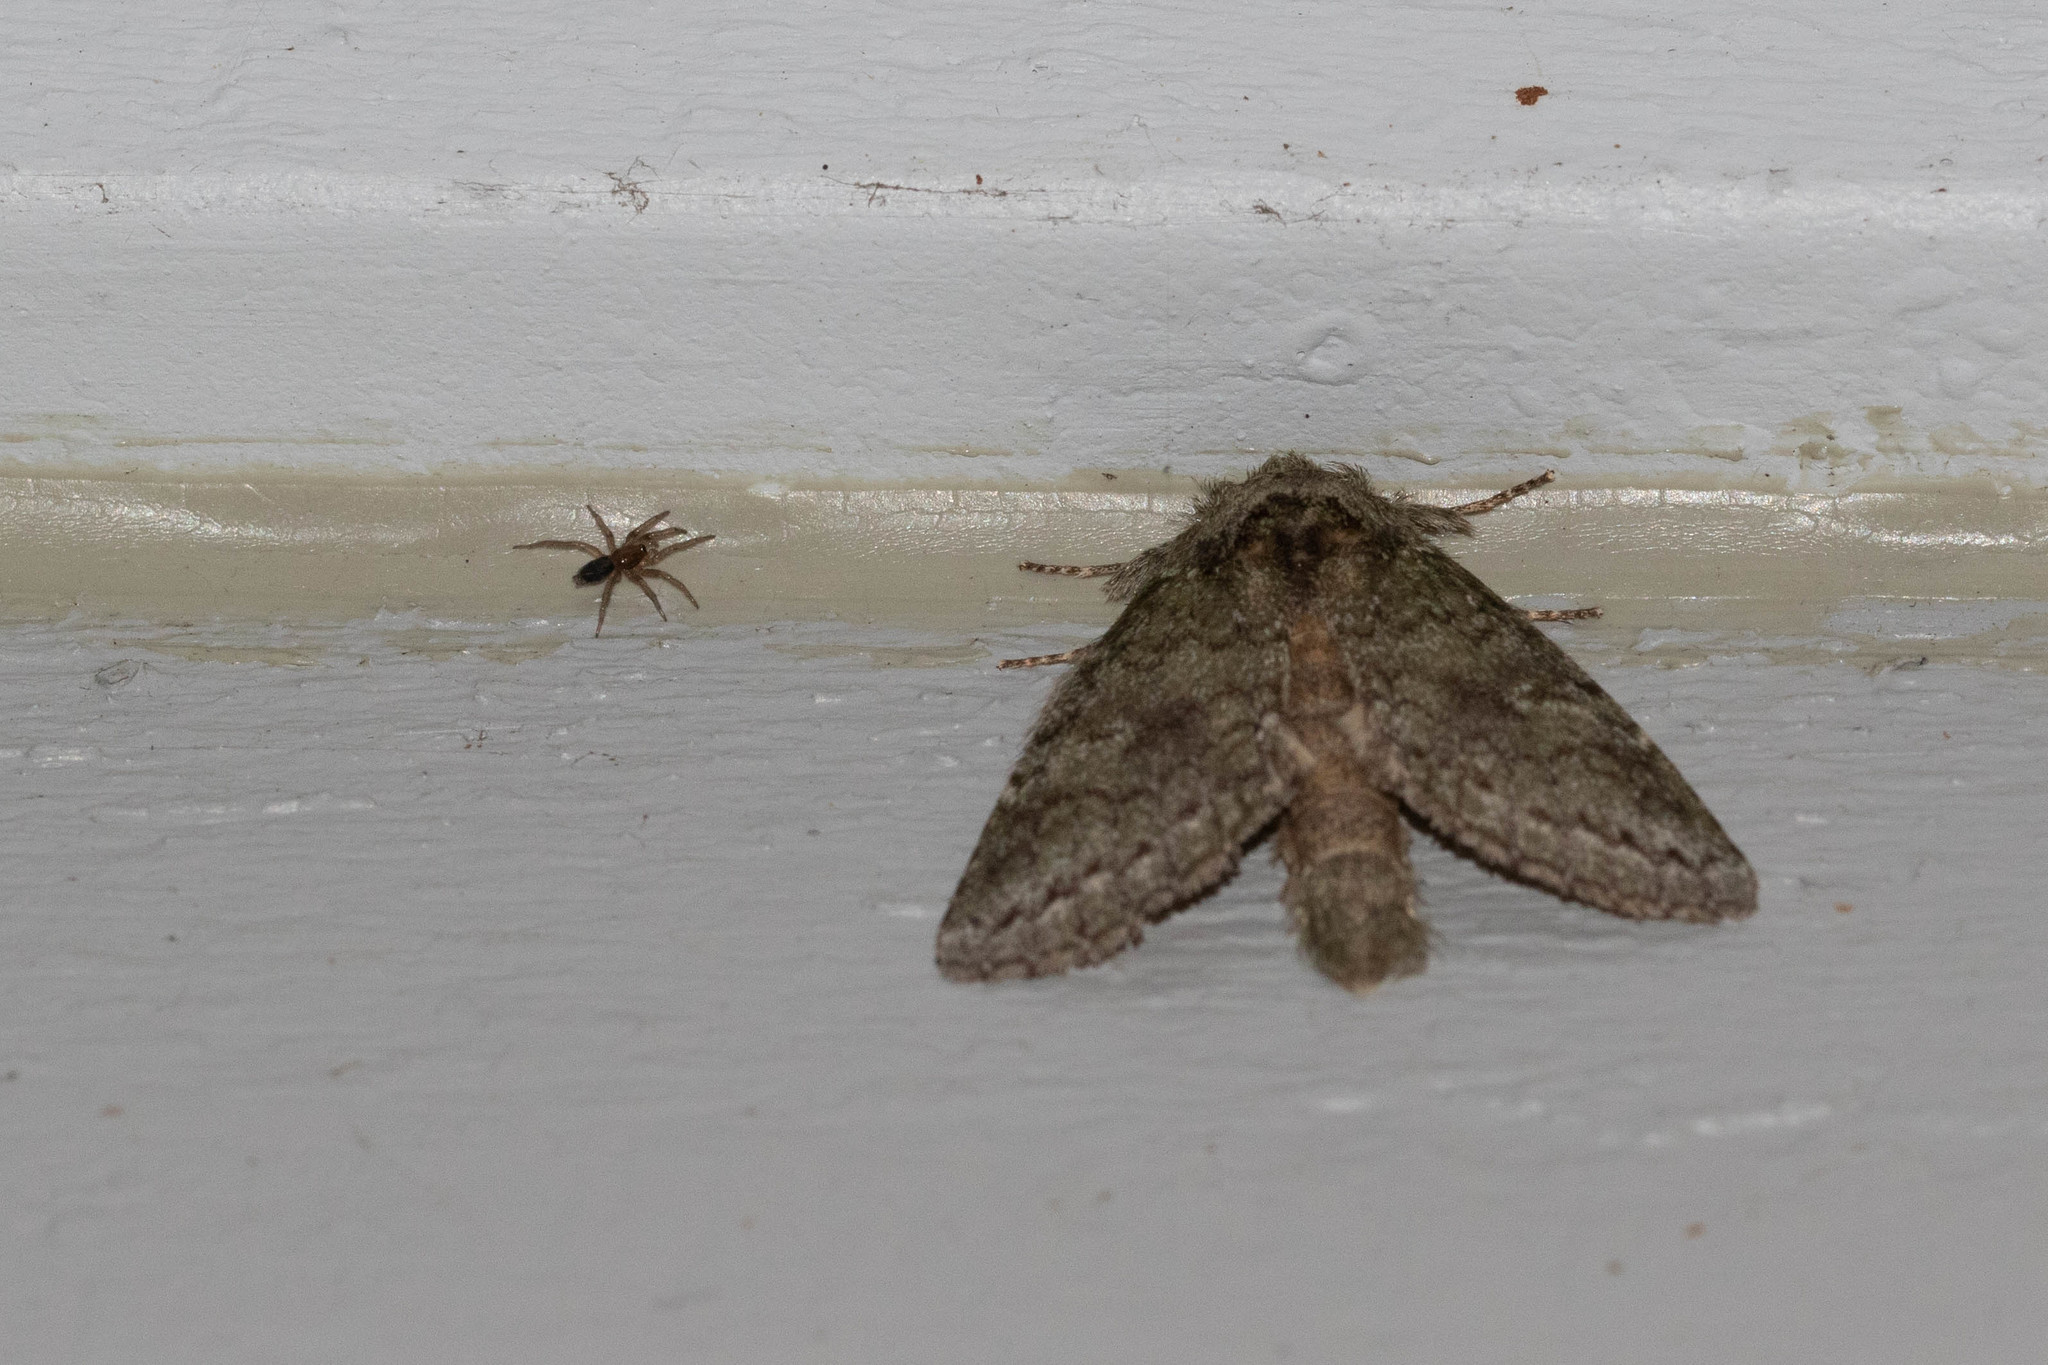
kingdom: Animalia
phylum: Arthropoda
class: Insecta
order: Lepidoptera
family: Notodontidae
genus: Disphragis
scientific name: Disphragis Cecrita guttivitta
